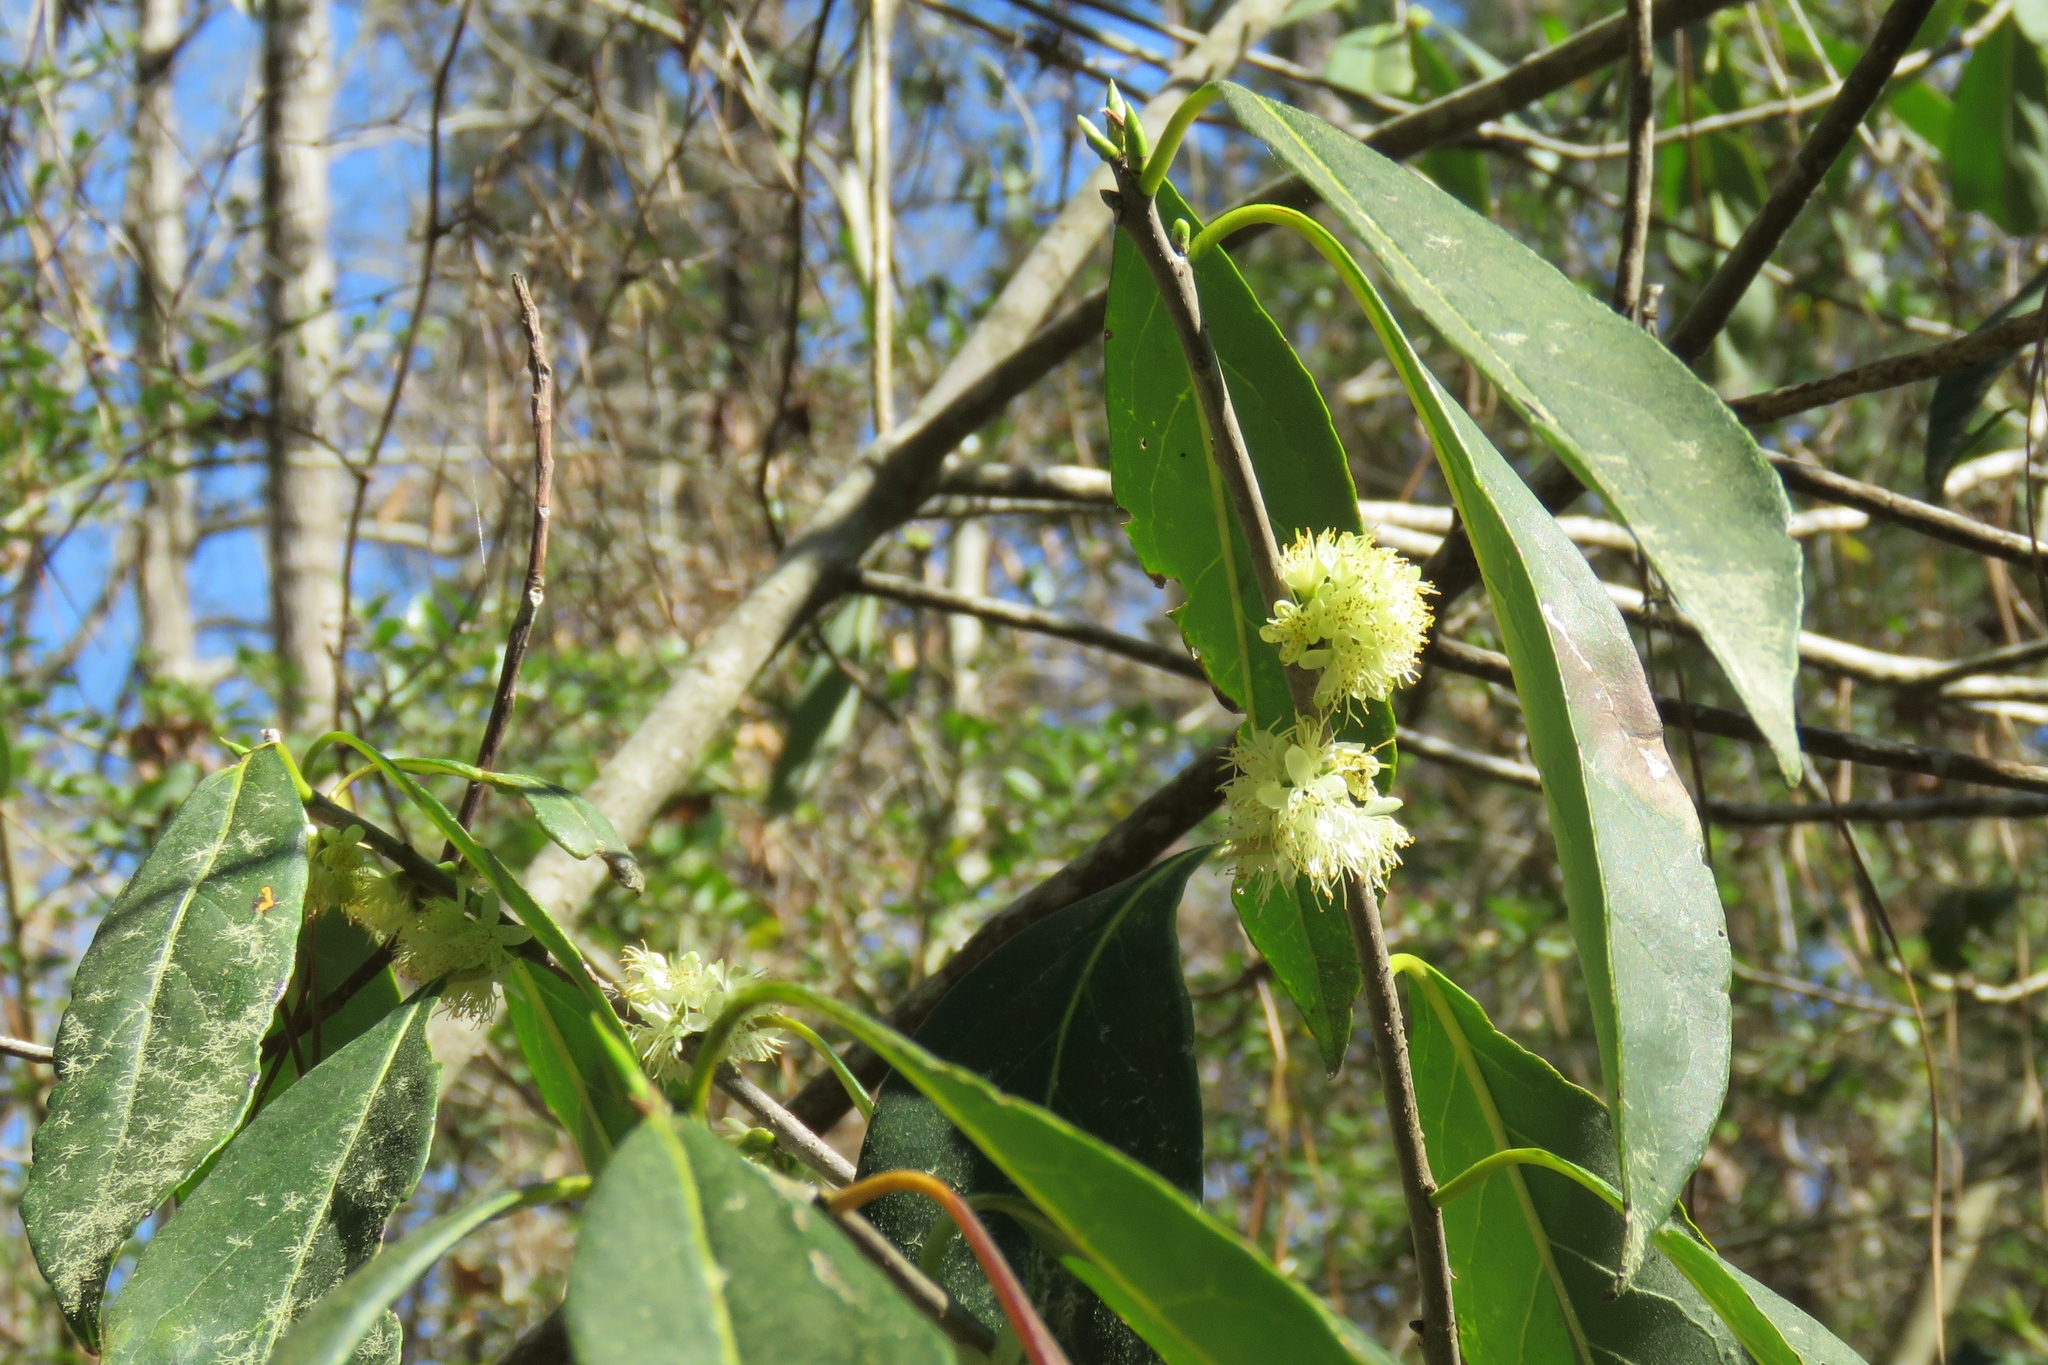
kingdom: Plantae
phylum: Tracheophyta
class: Magnoliopsida
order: Ericales
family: Symplocaceae
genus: Symplocos
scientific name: Symplocos tinctoria
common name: Horse-sugar
